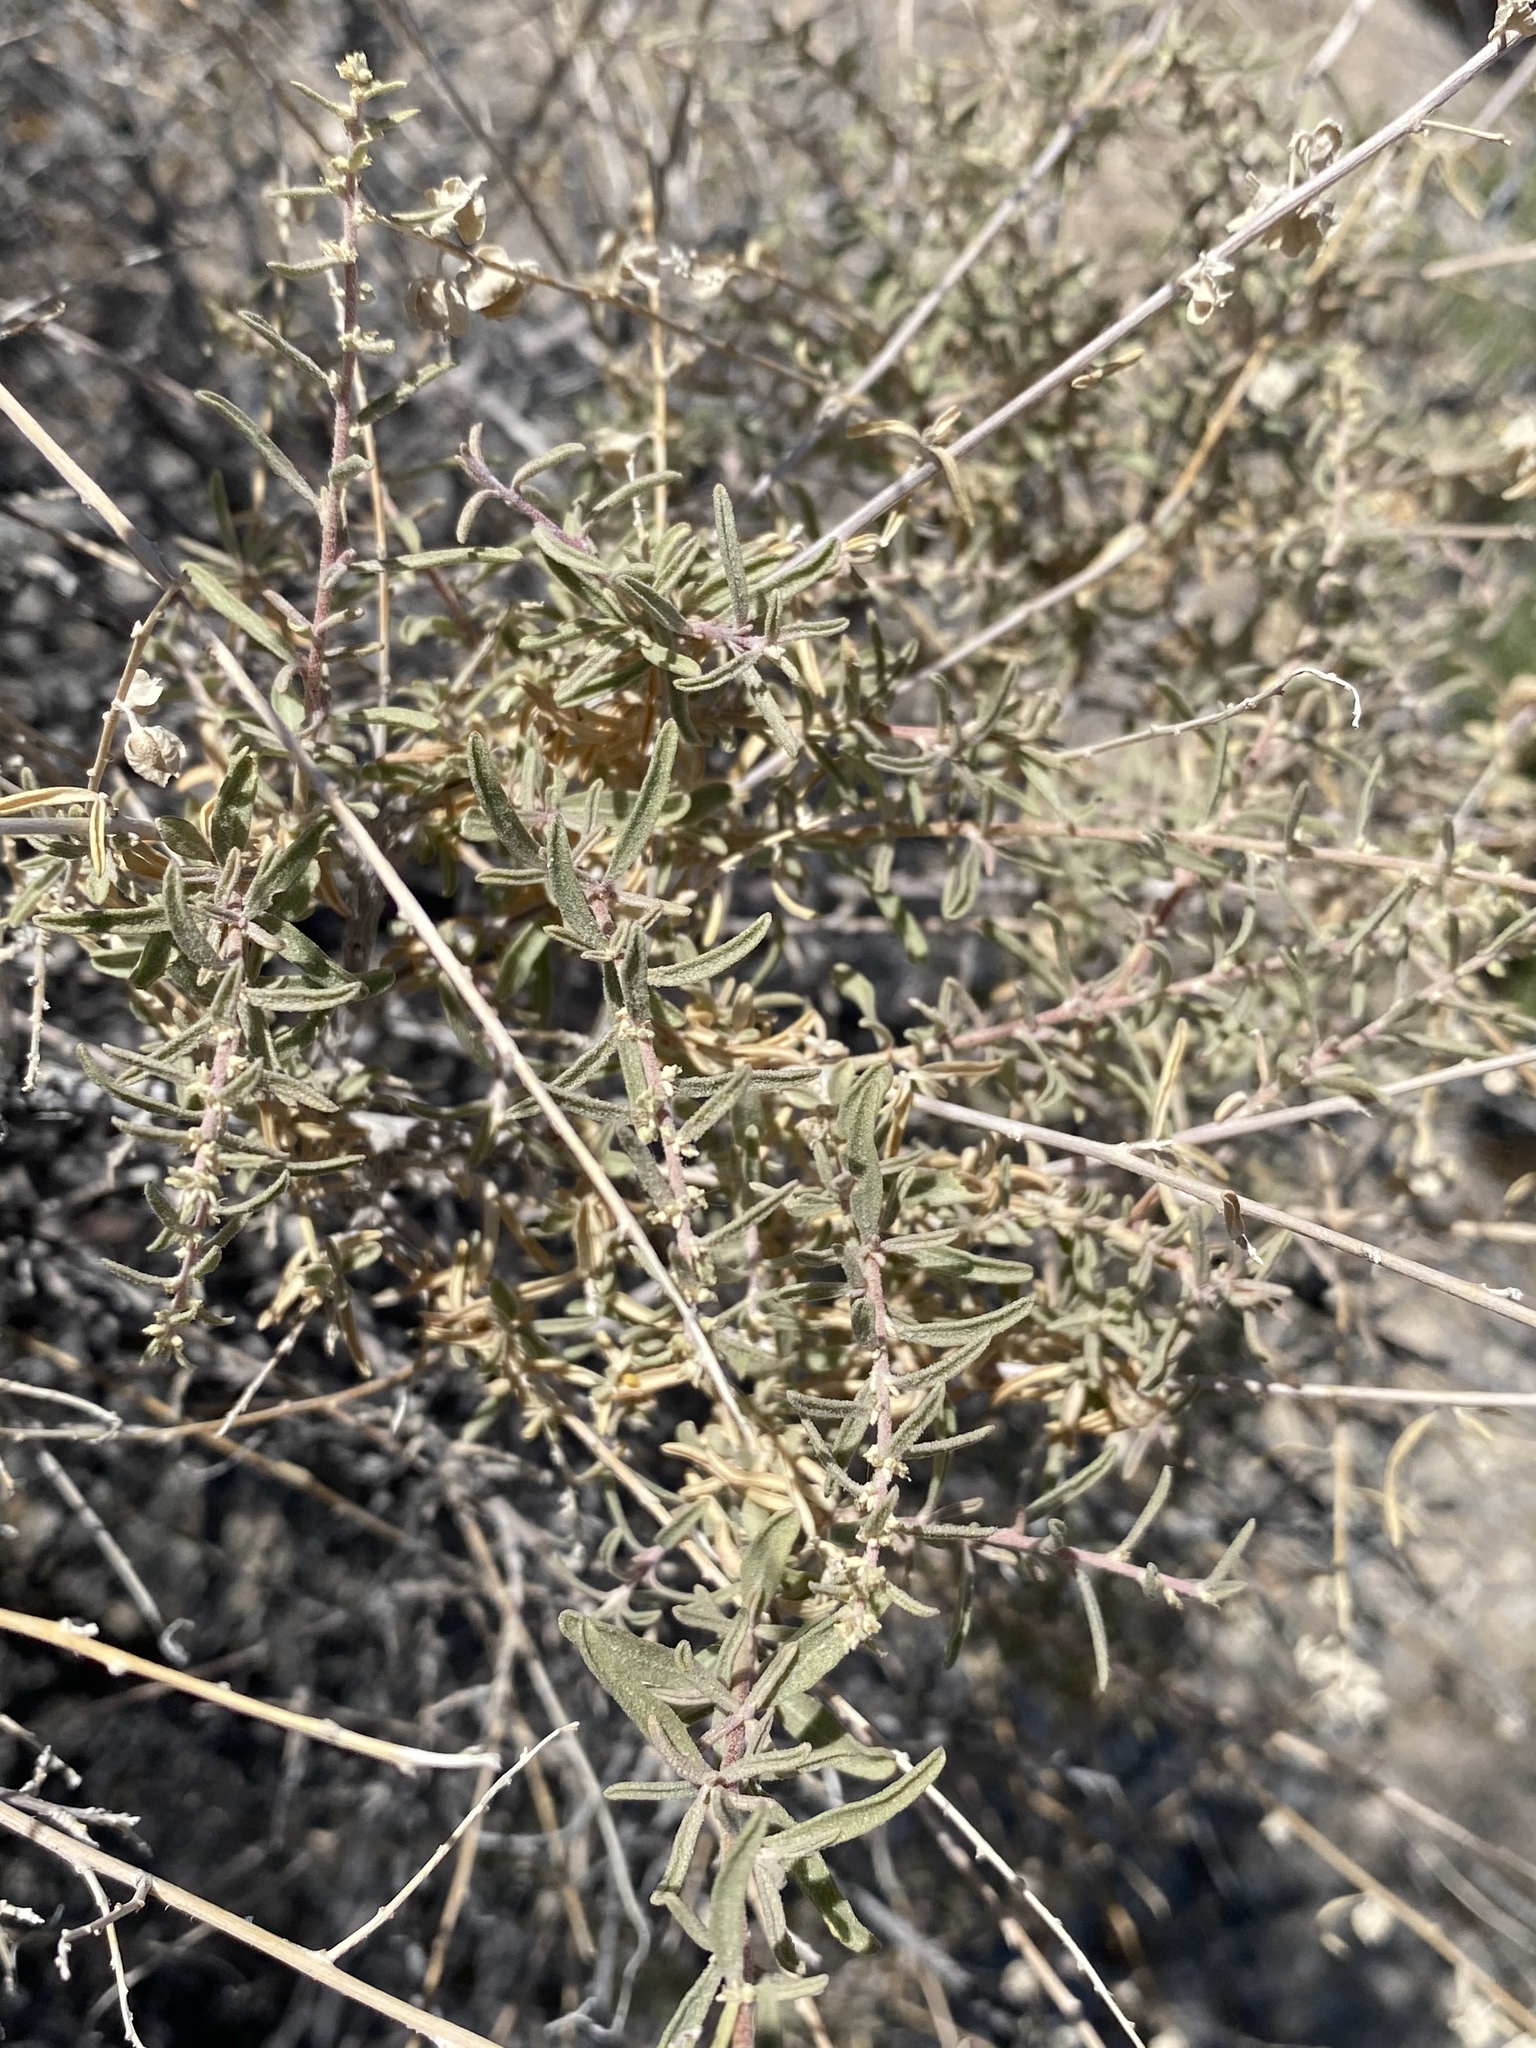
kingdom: Plantae
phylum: Tracheophyta
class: Magnoliopsida
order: Caryophyllales
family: Amaranthaceae
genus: Atriplex
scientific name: Atriplex canescens
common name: Four-wing saltbush
